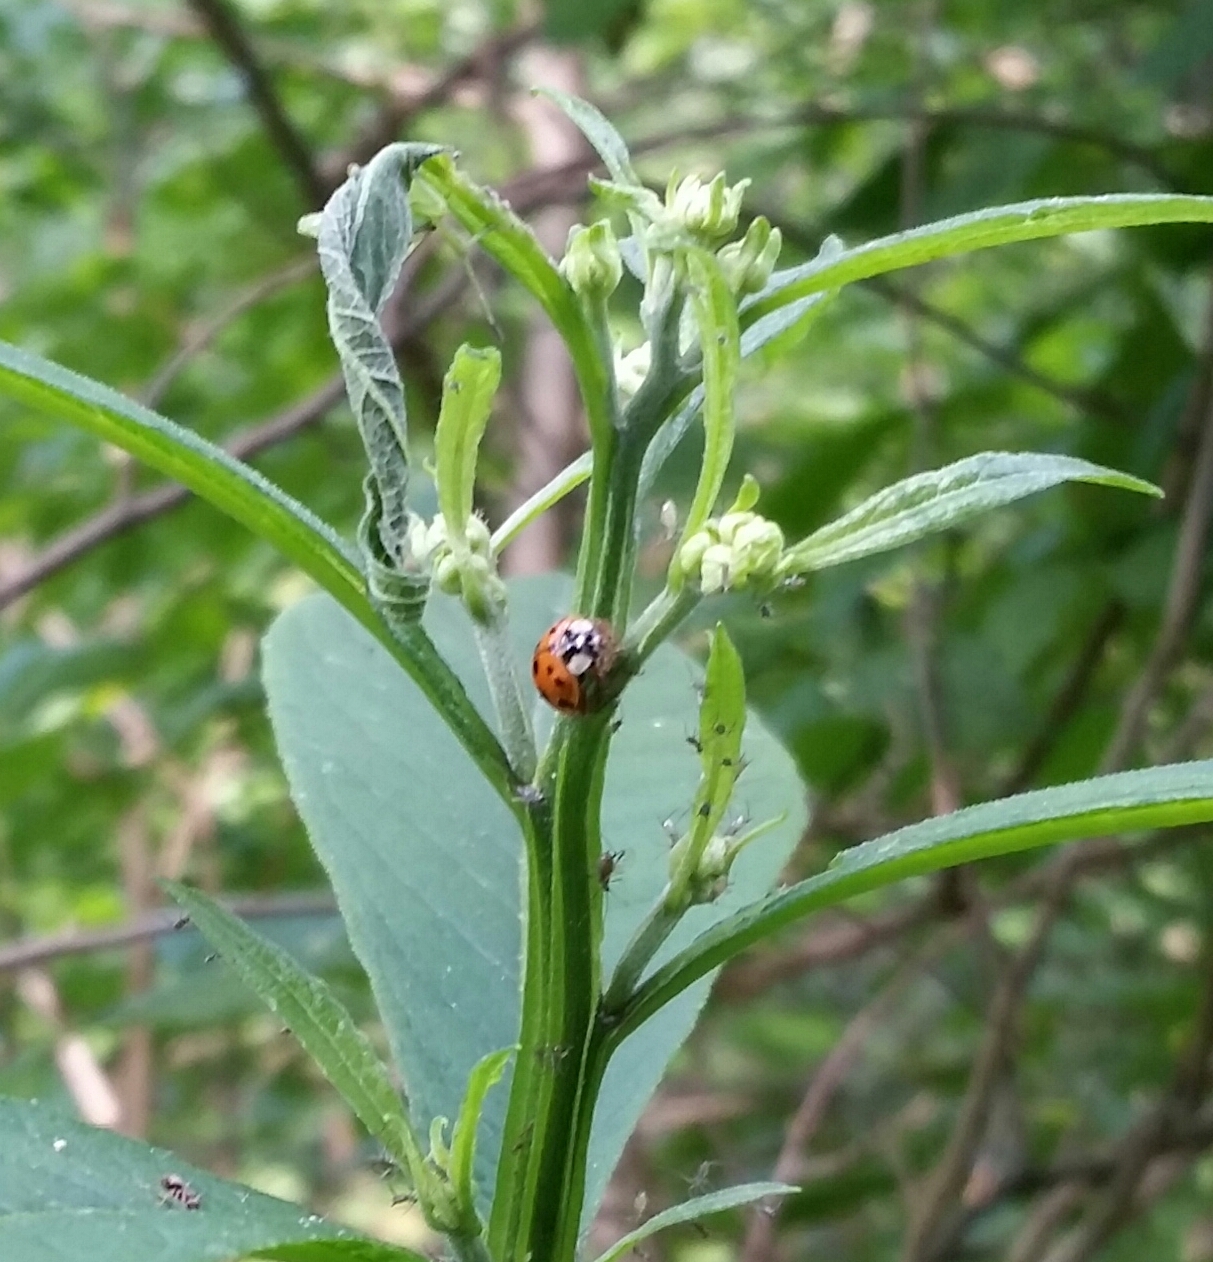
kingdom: Animalia
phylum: Arthropoda
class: Insecta
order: Coleoptera
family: Coccinellidae
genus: Harmonia
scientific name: Harmonia axyridis
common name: Harlequin ladybird
